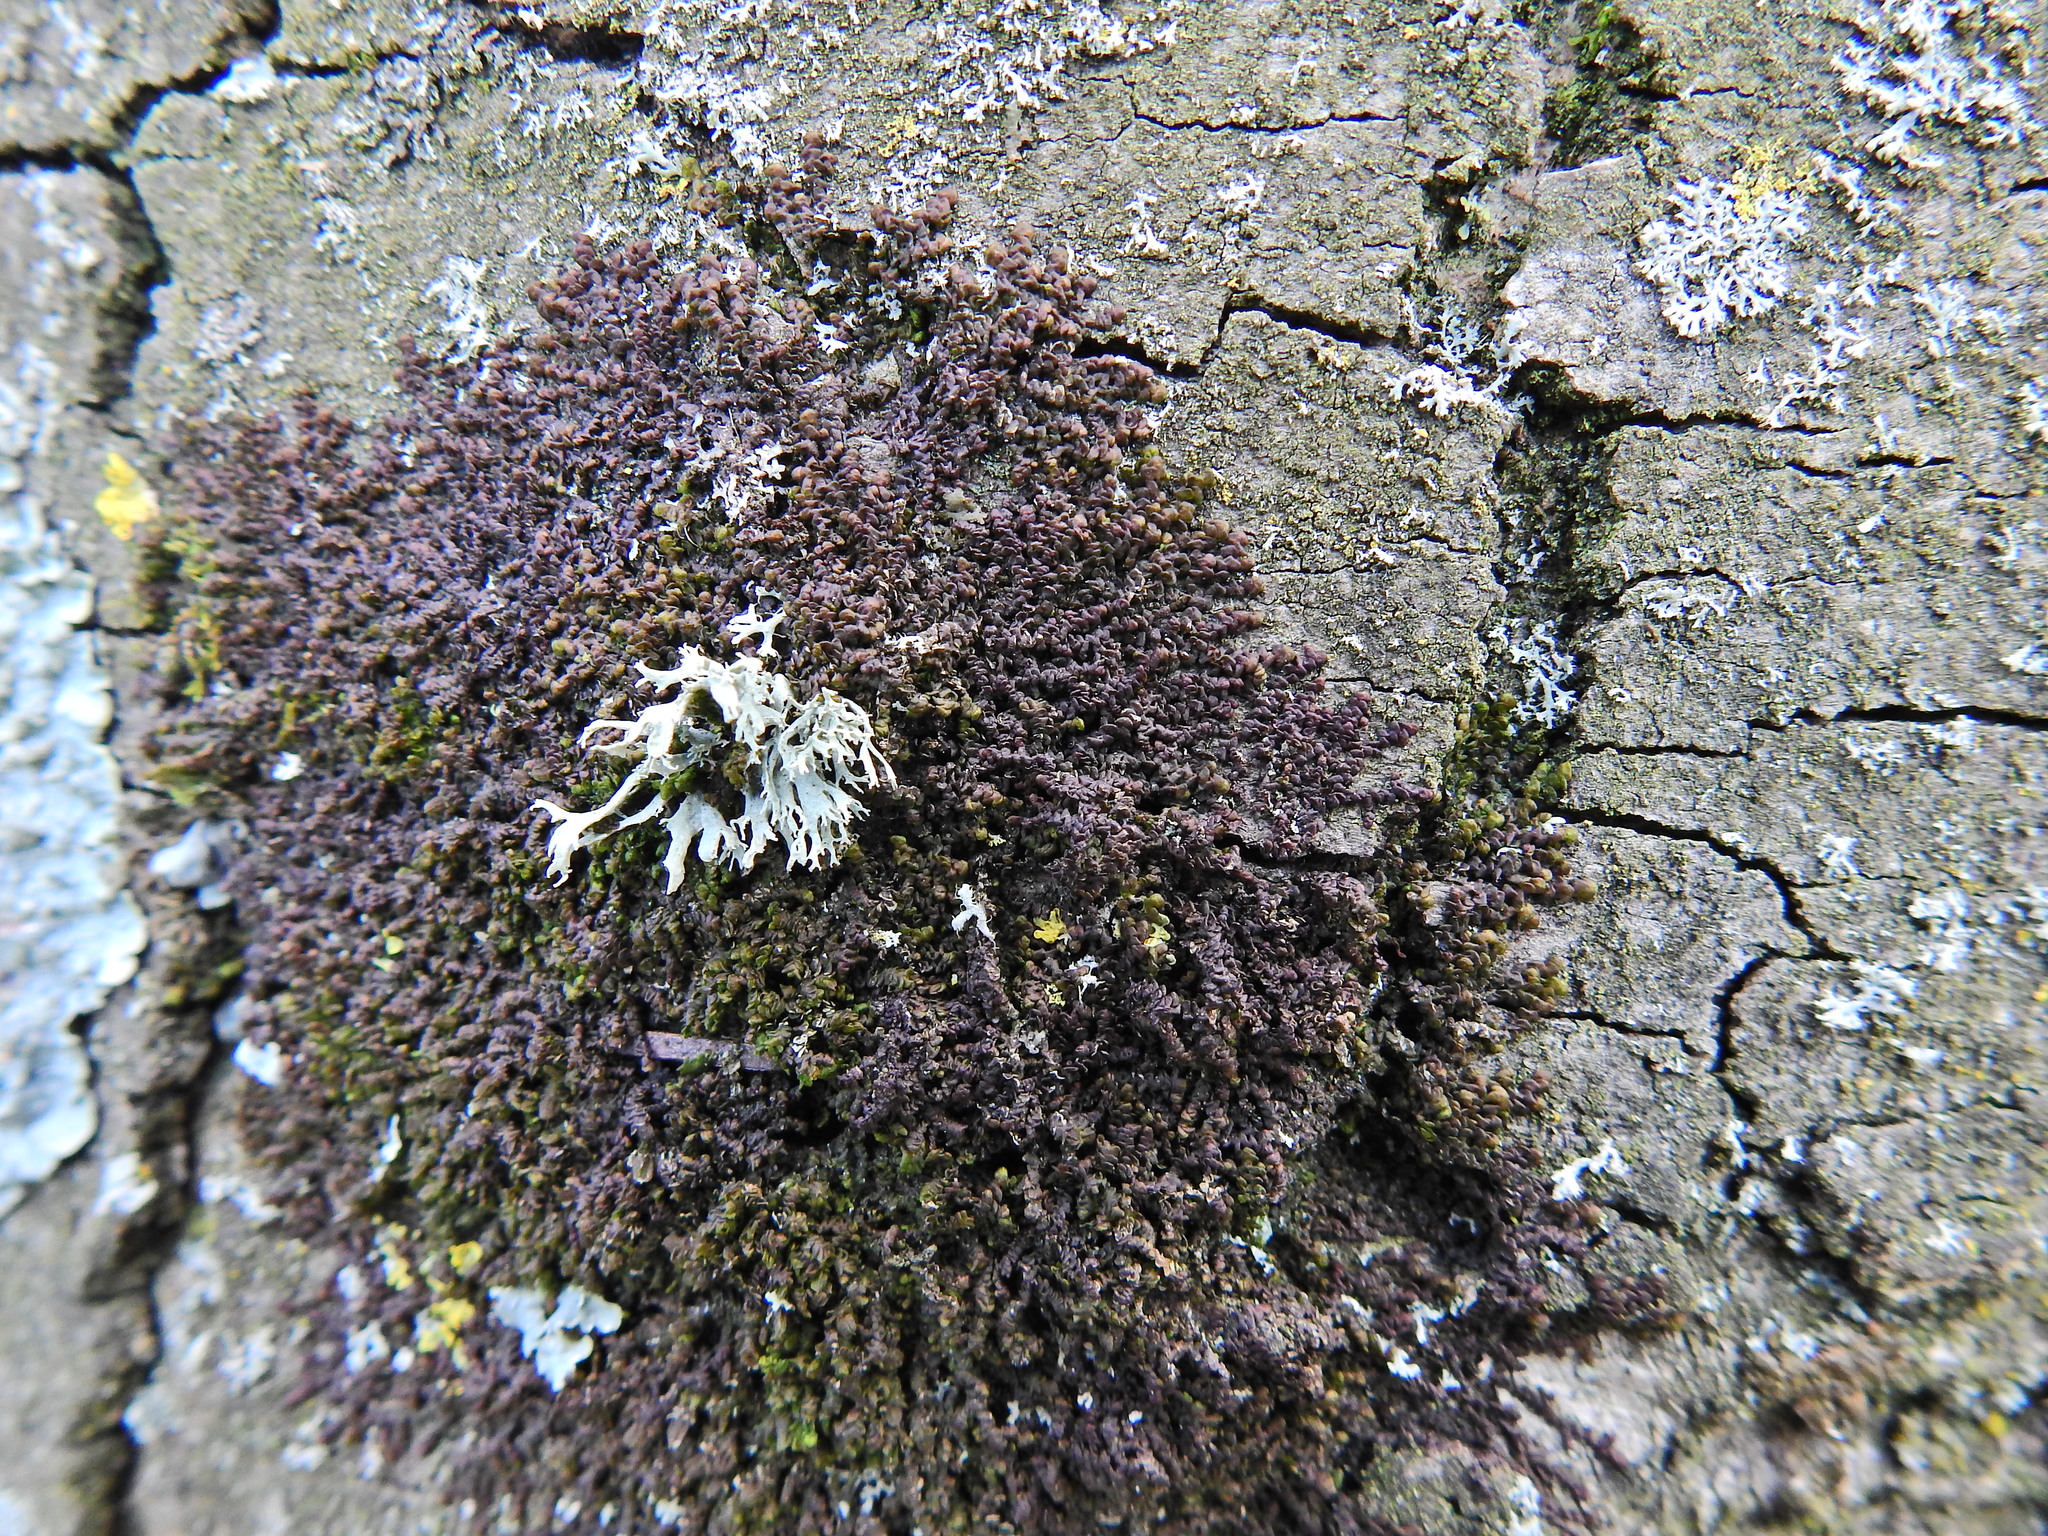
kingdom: Plantae
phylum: Marchantiophyta
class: Jungermanniopsida
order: Porellales
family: Frullaniaceae
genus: Frullania
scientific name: Frullania dilatata
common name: Dilated scalewort
